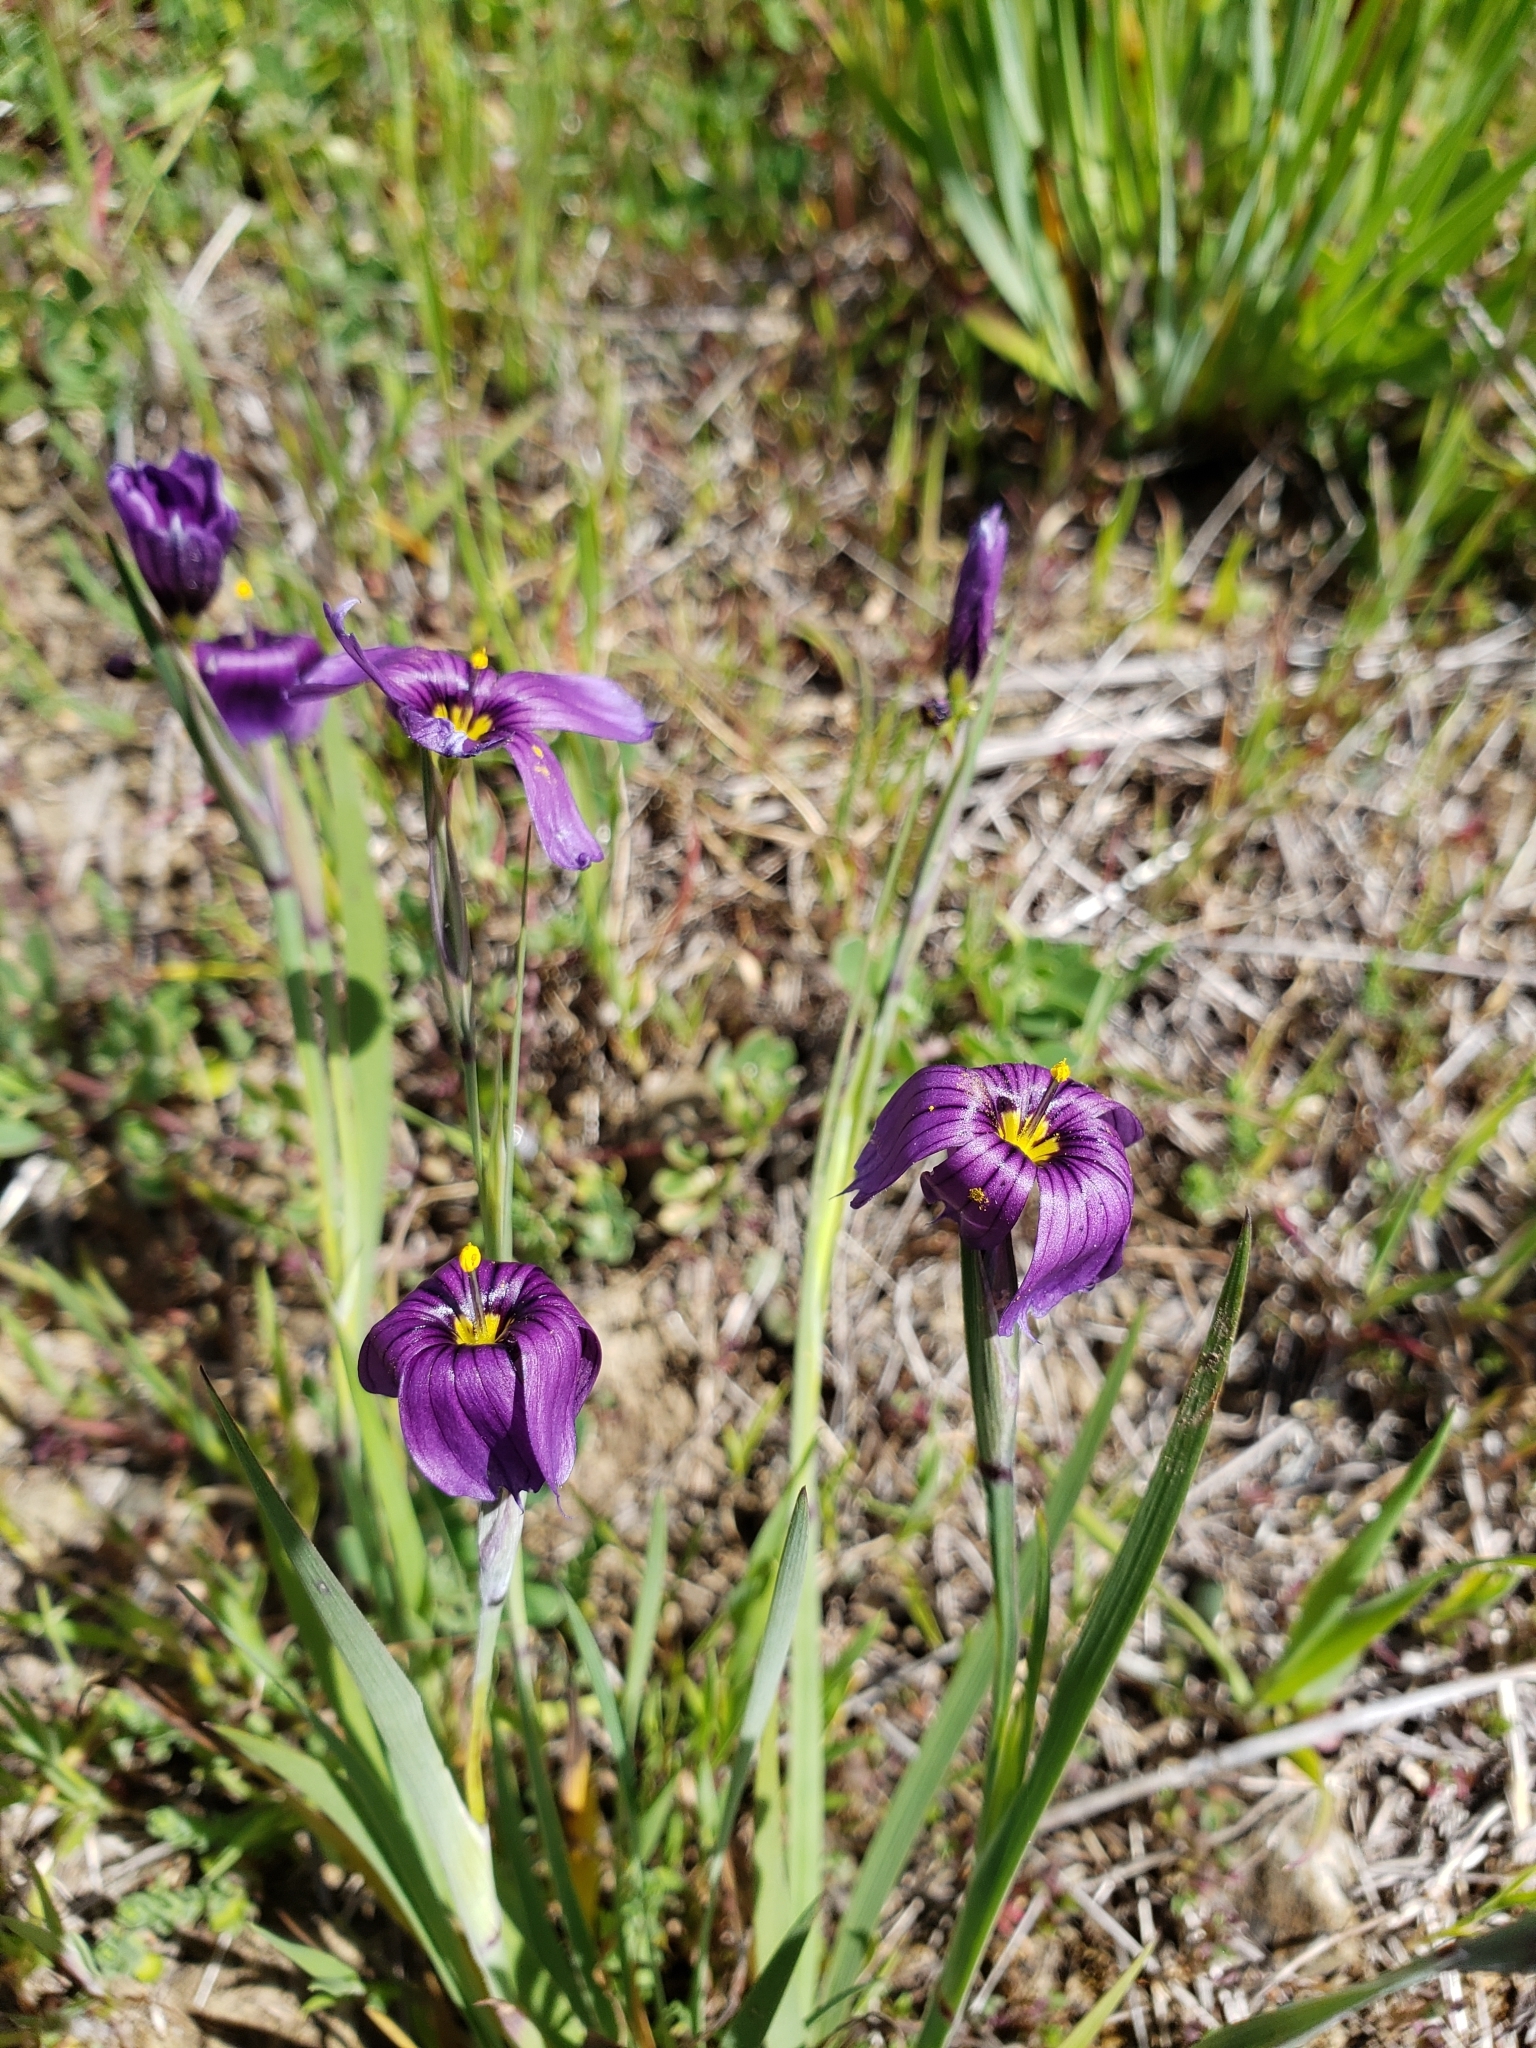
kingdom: Plantae
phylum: Tracheophyta
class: Liliopsida
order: Asparagales
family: Iridaceae
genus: Sisyrinchium
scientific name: Sisyrinchium bellum
